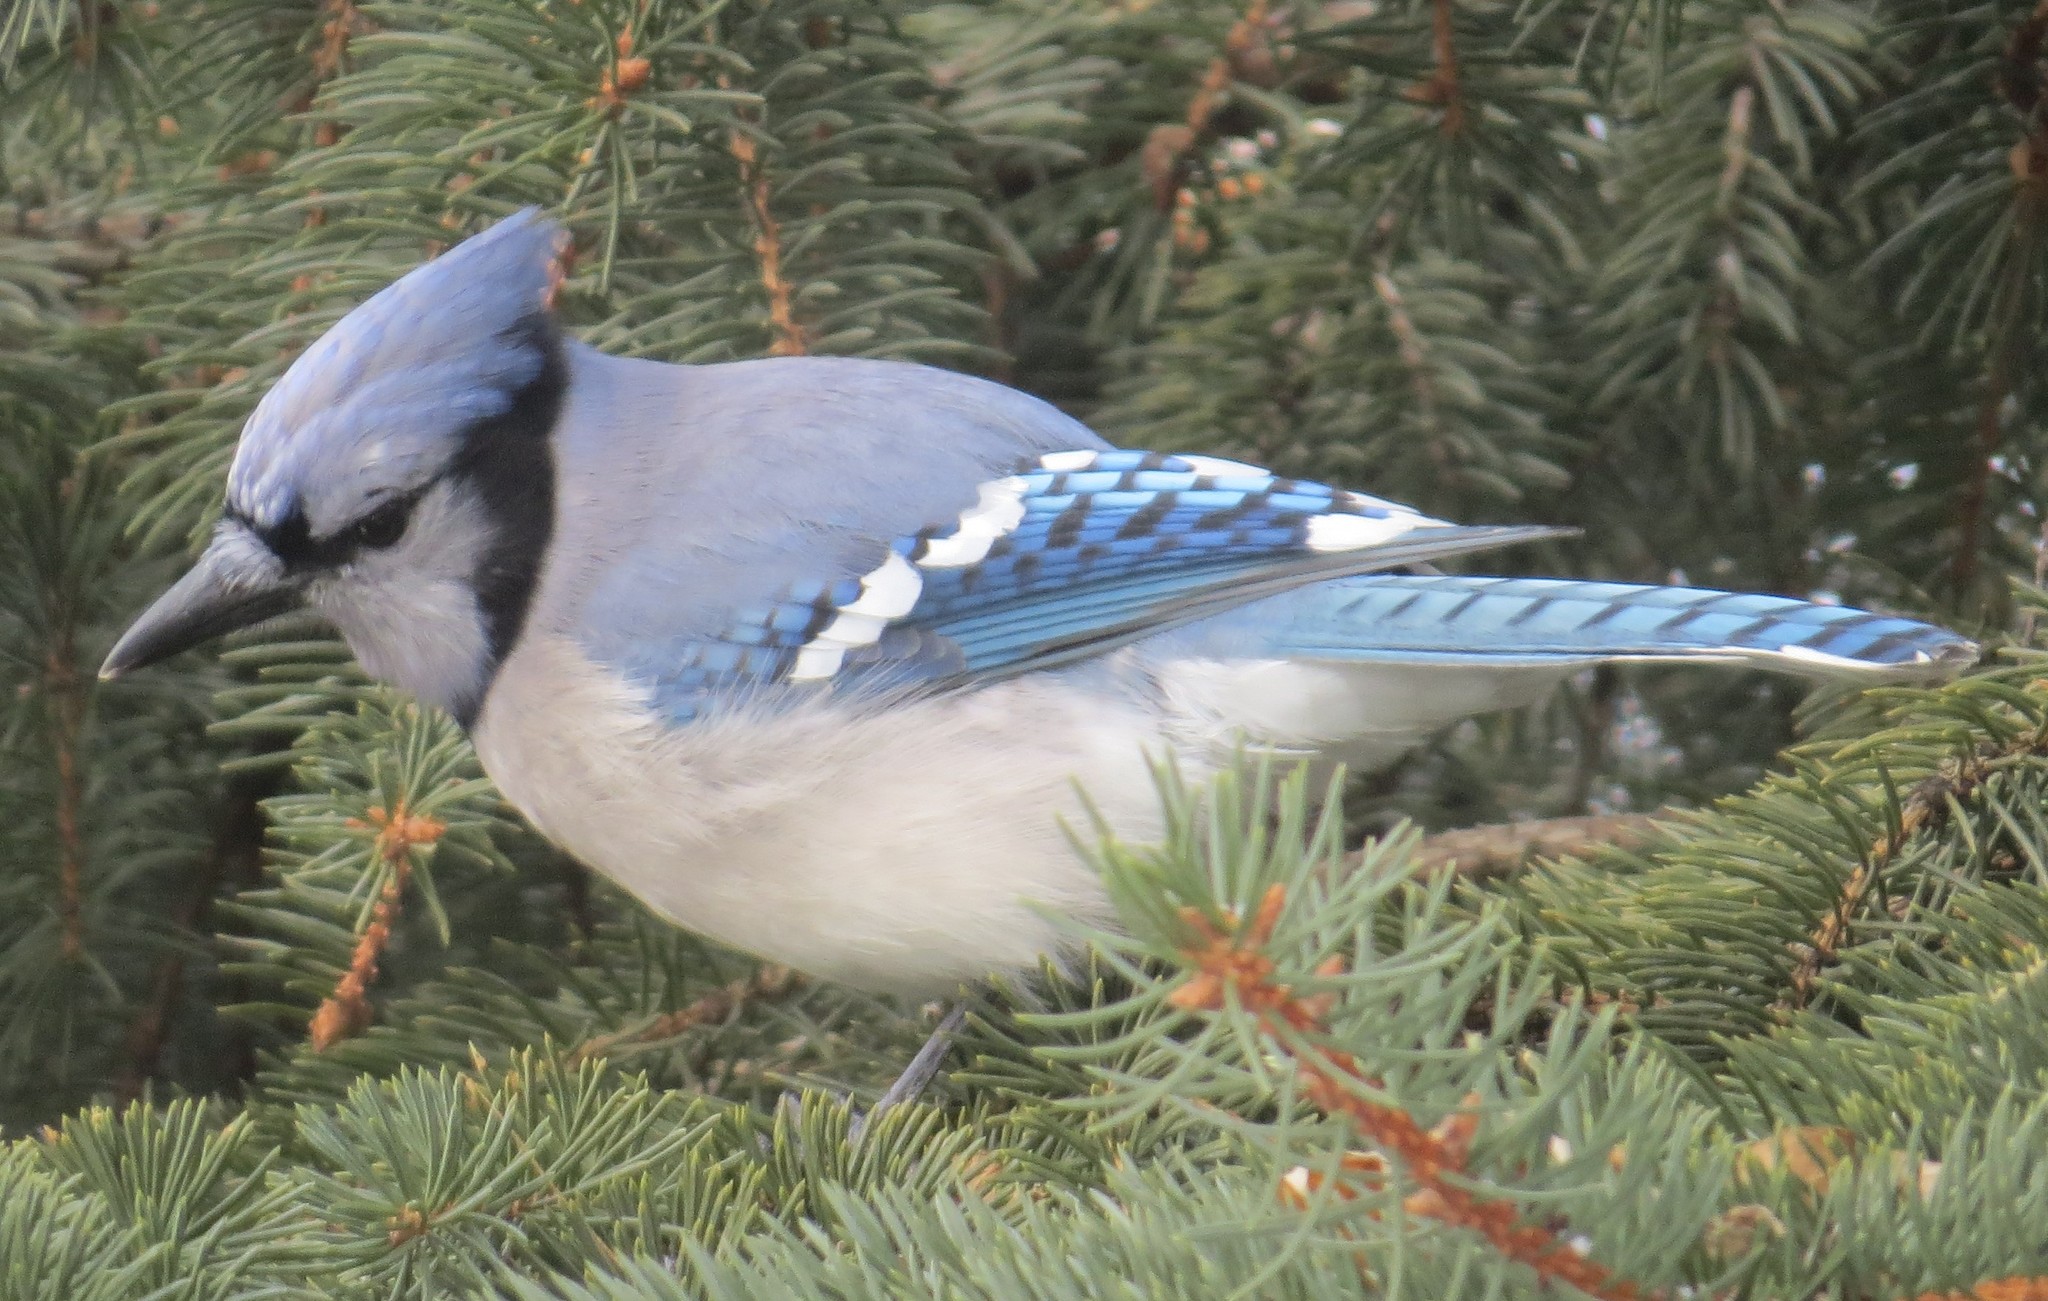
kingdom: Animalia
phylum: Chordata
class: Aves
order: Passeriformes
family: Corvidae
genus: Cyanocitta
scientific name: Cyanocitta cristata
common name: Blue jay
